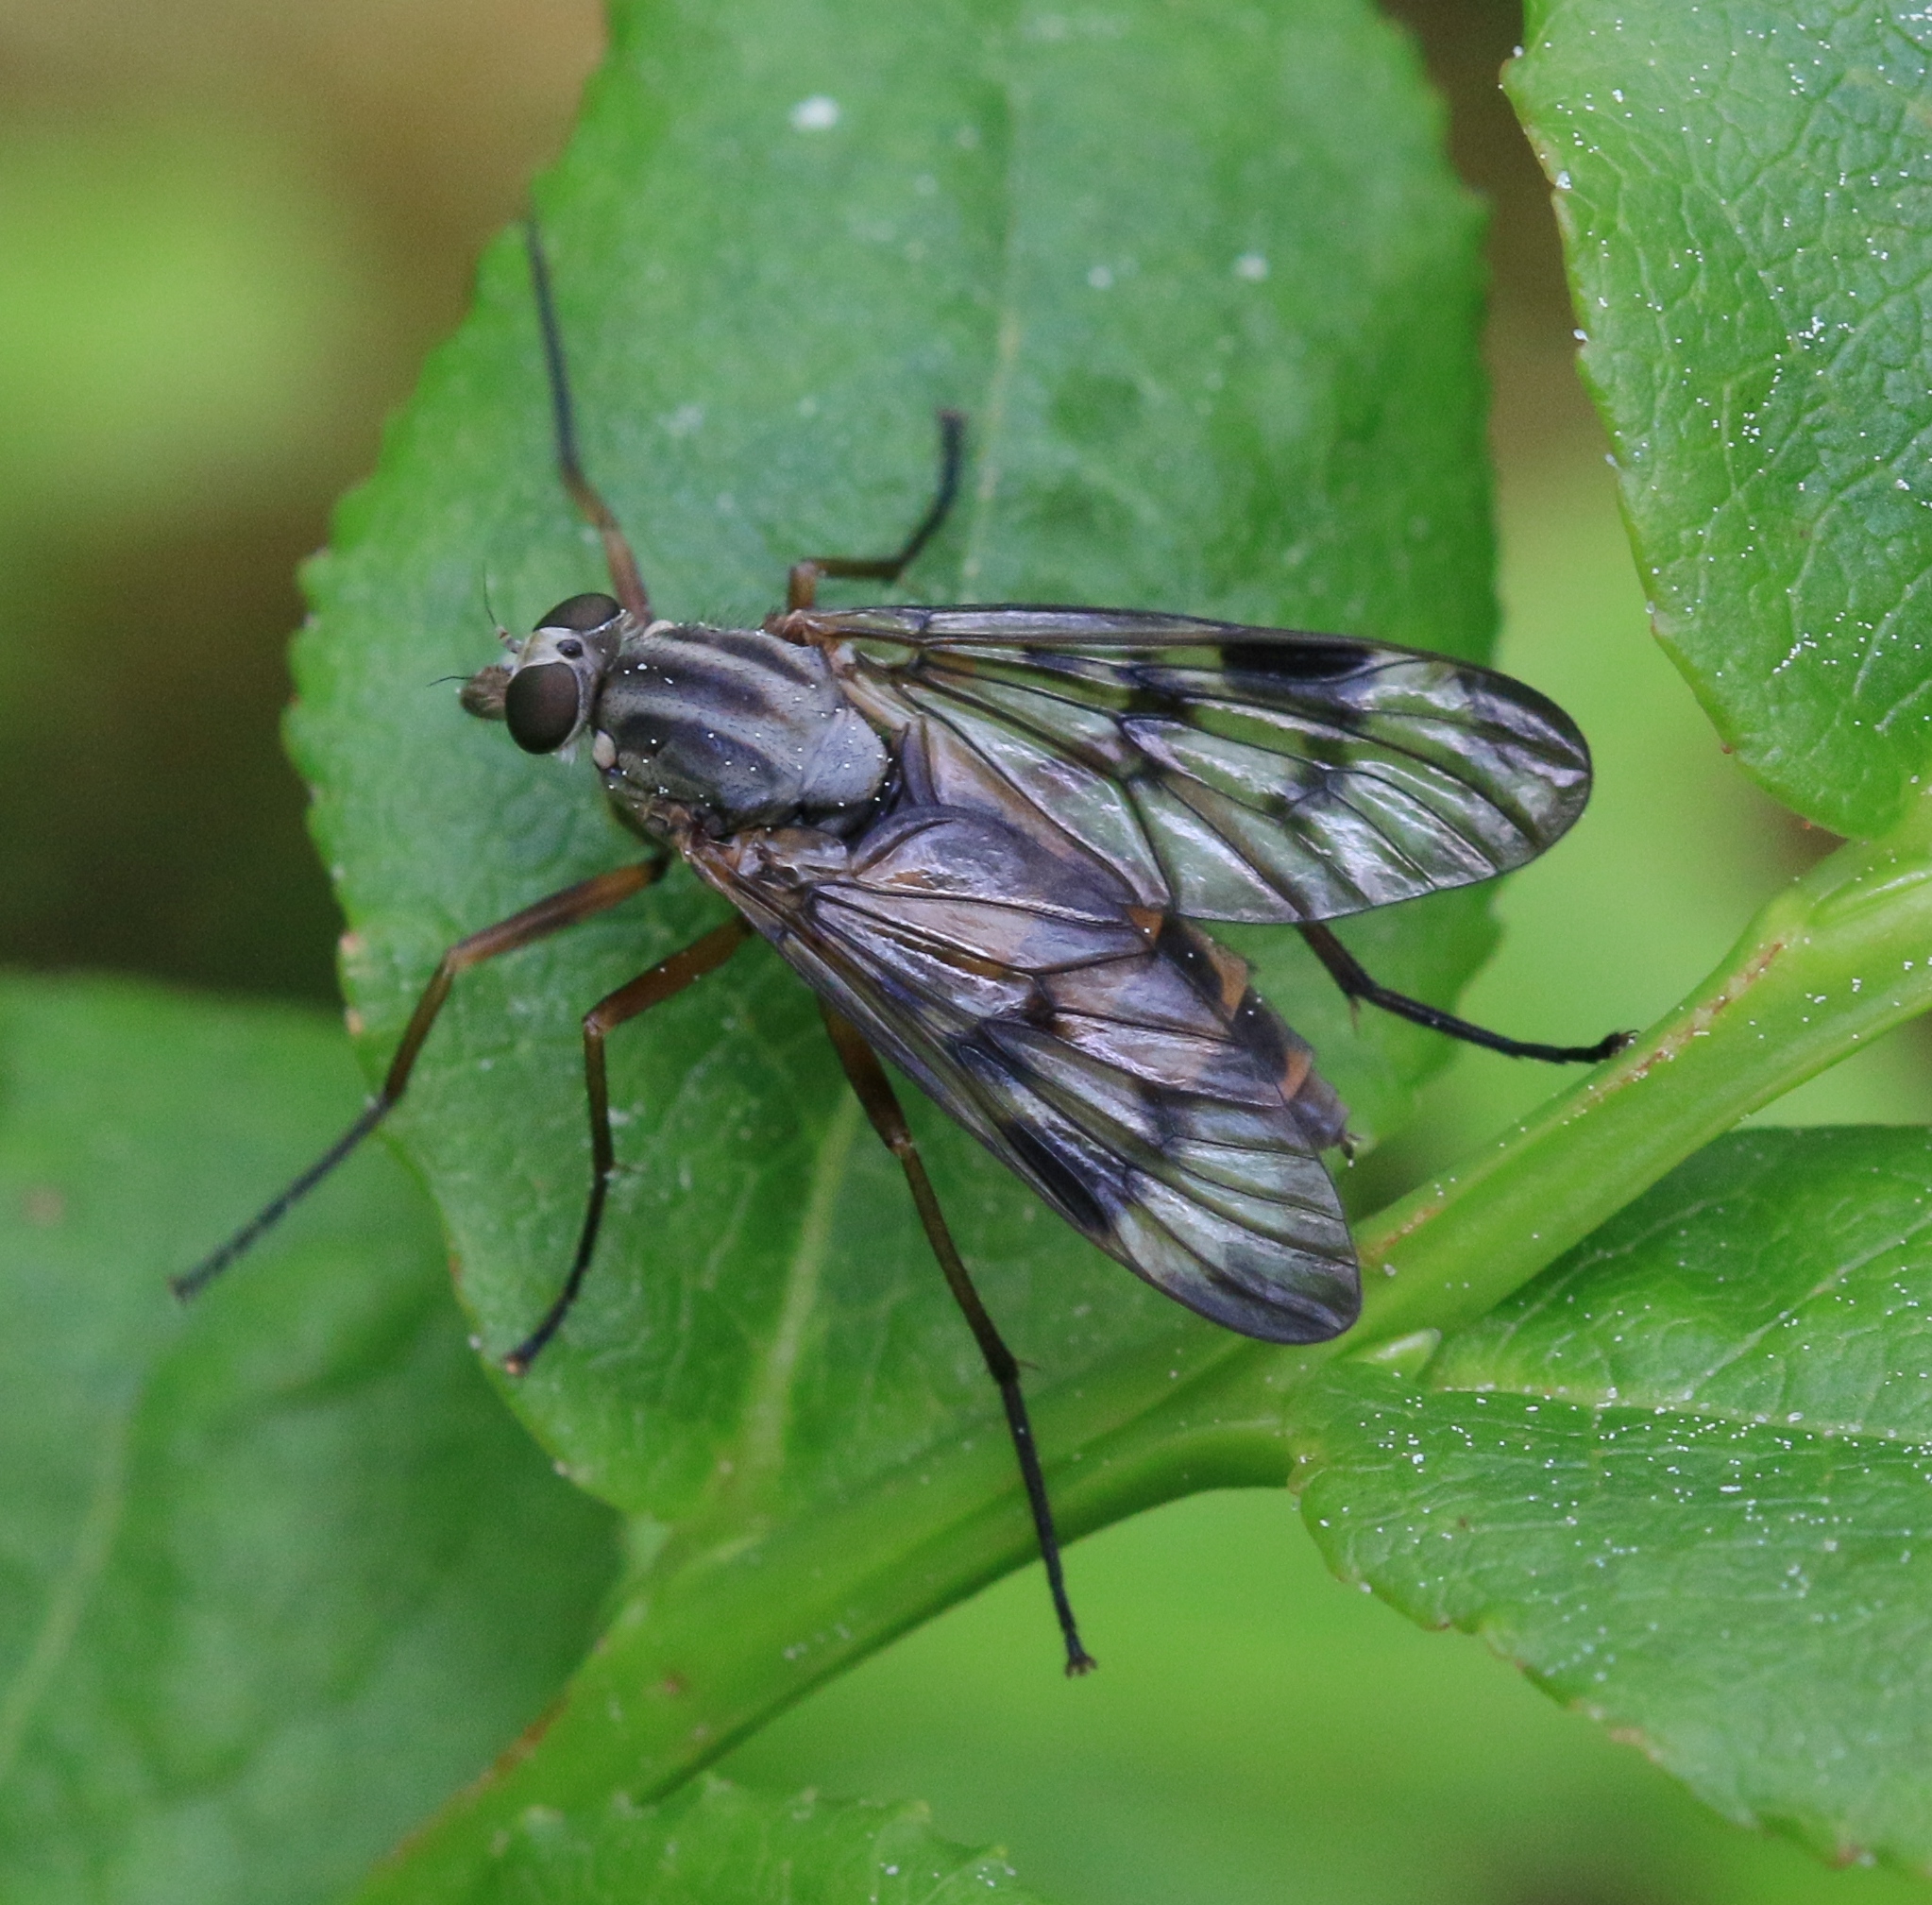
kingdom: Animalia
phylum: Arthropoda
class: Insecta
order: Diptera
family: Rhagionidae
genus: Rhagio
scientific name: Rhagio scolopacea
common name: Downlooker snipefly
